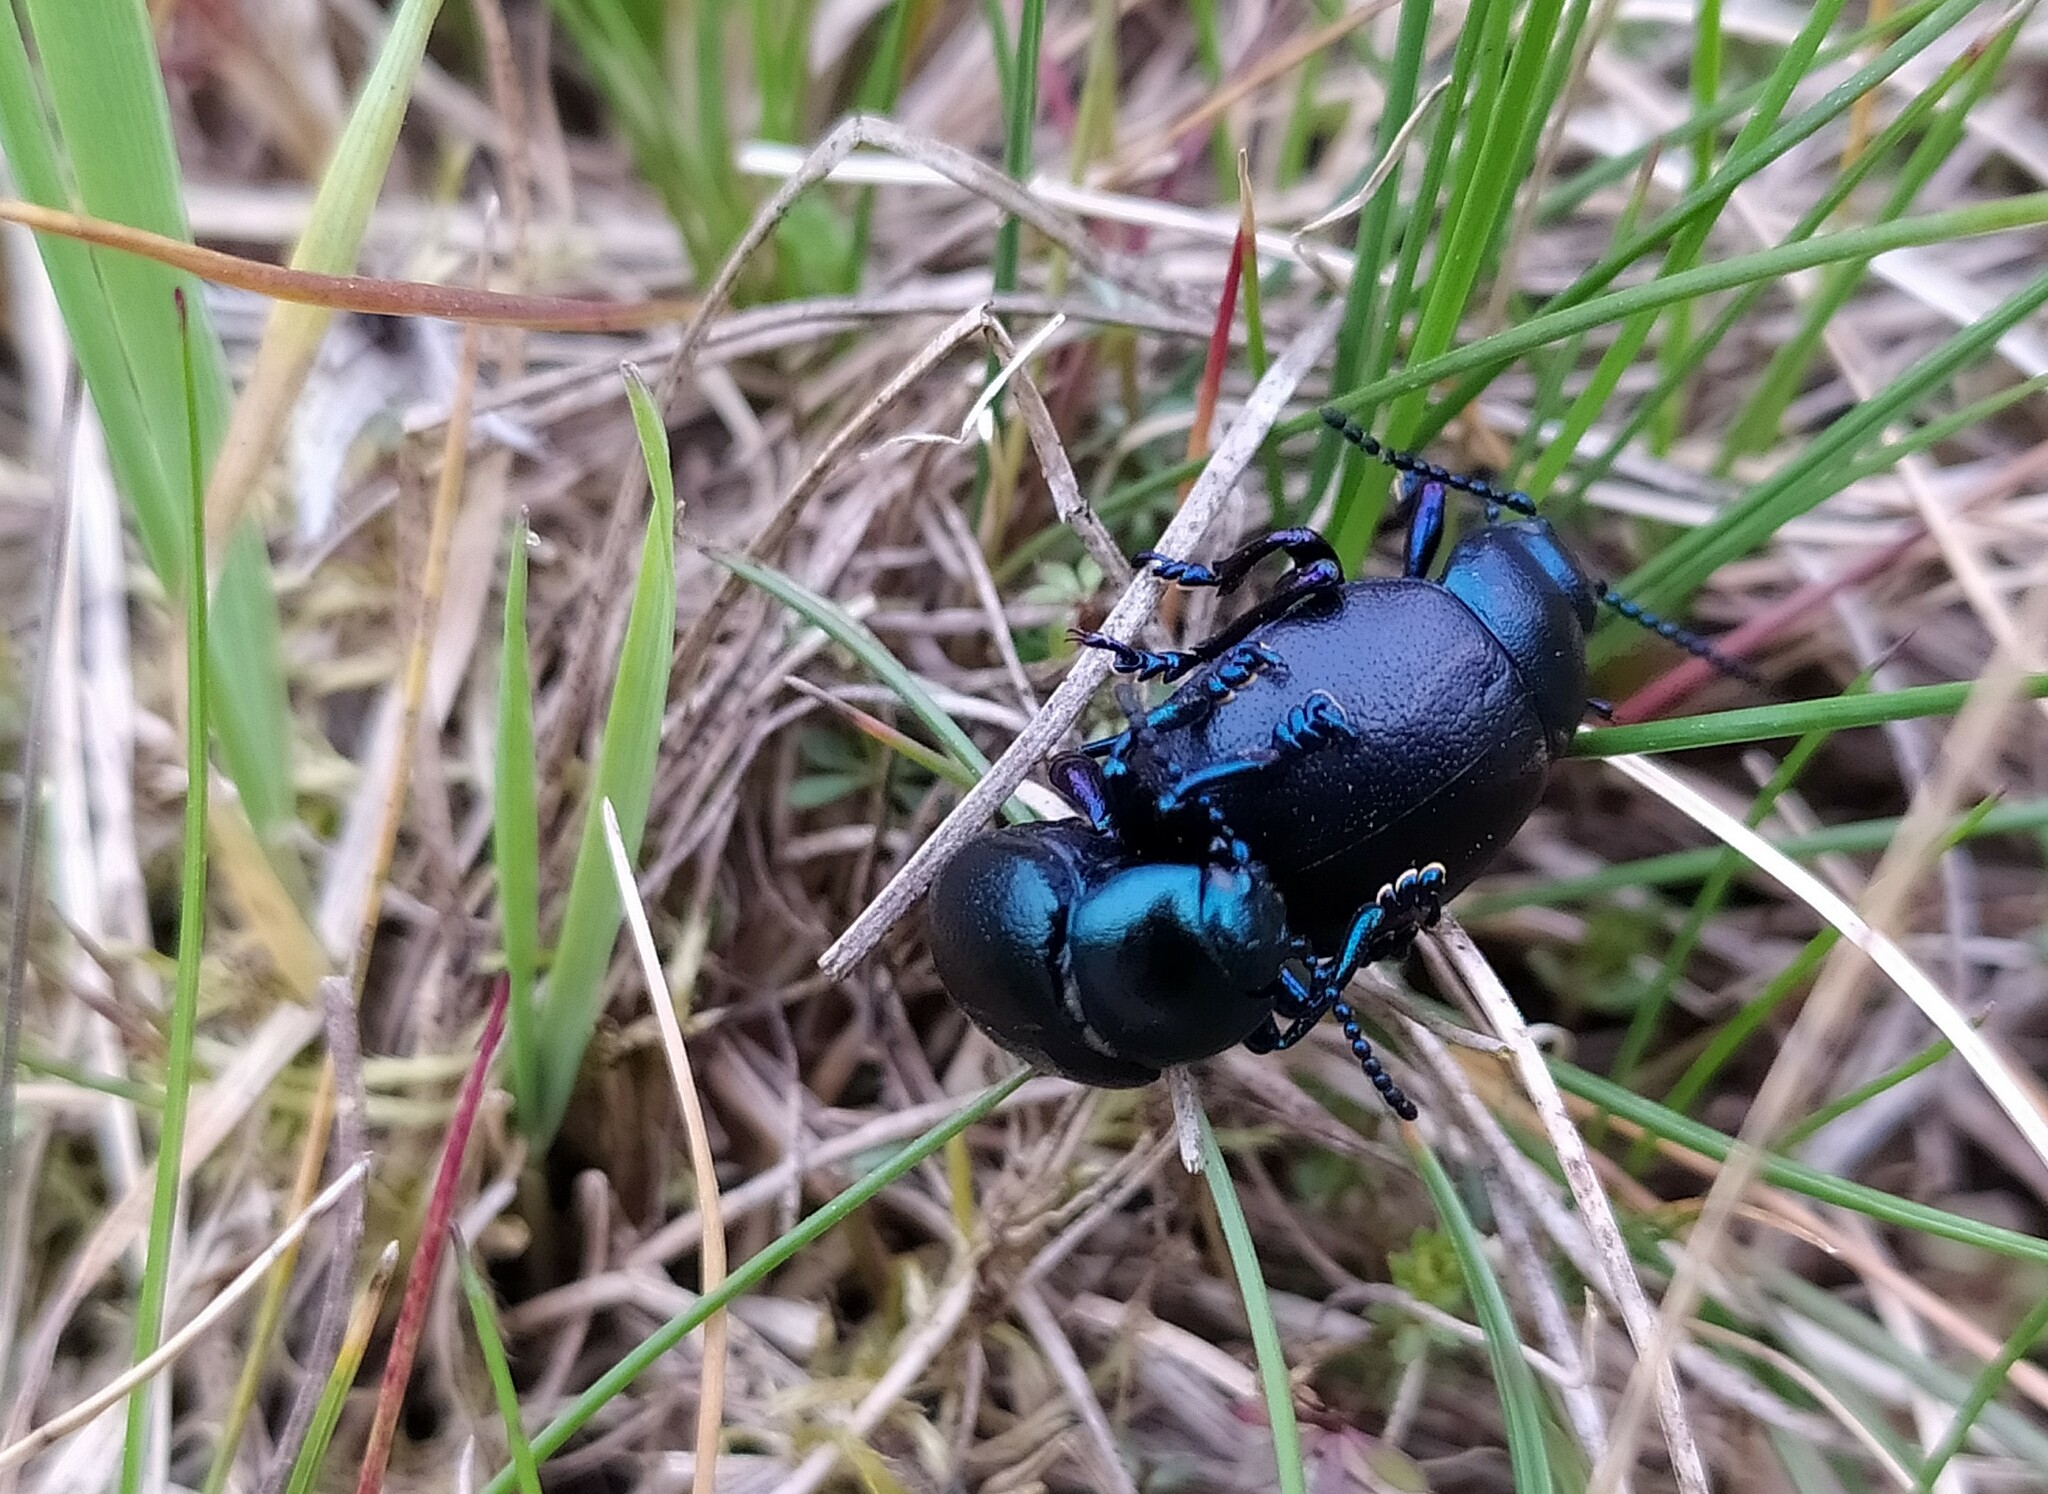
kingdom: Animalia
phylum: Arthropoda
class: Insecta
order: Coleoptera
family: Chrysomelidae
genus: Timarcha
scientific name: Timarcha goettingensis
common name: Small bloody-nosed beetle
